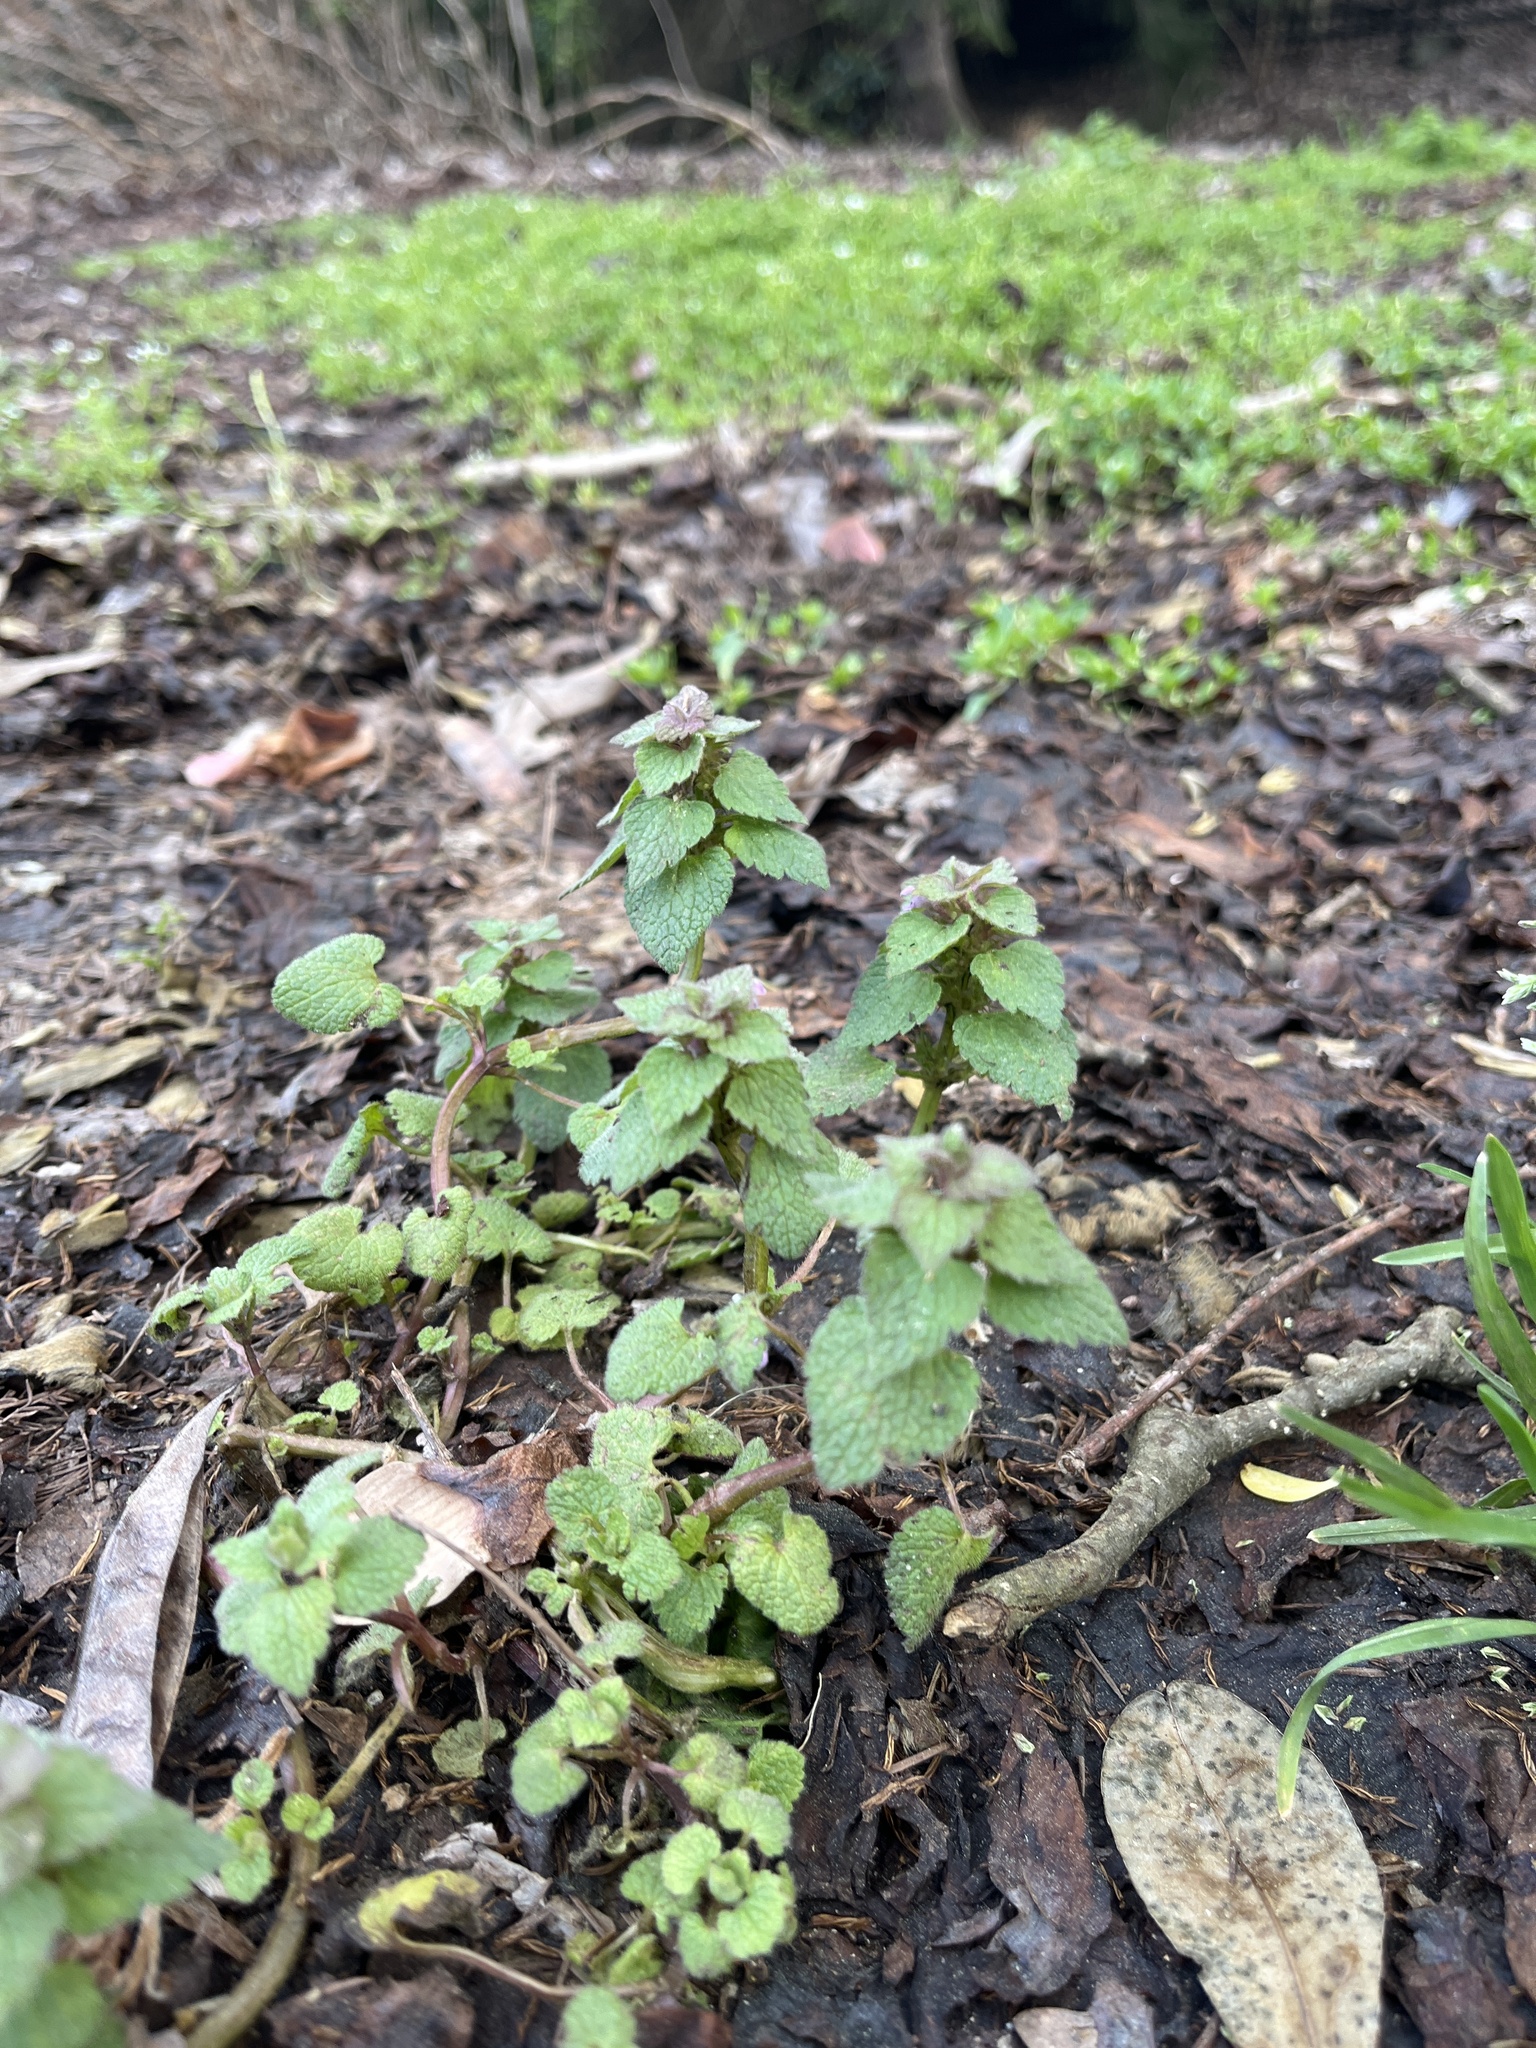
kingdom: Plantae
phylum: Tracheophyta
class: Magnoliopsida
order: Lamiales
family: Lamiaceae
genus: Lamium
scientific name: Lamium purpureum
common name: Red dead-nettle
